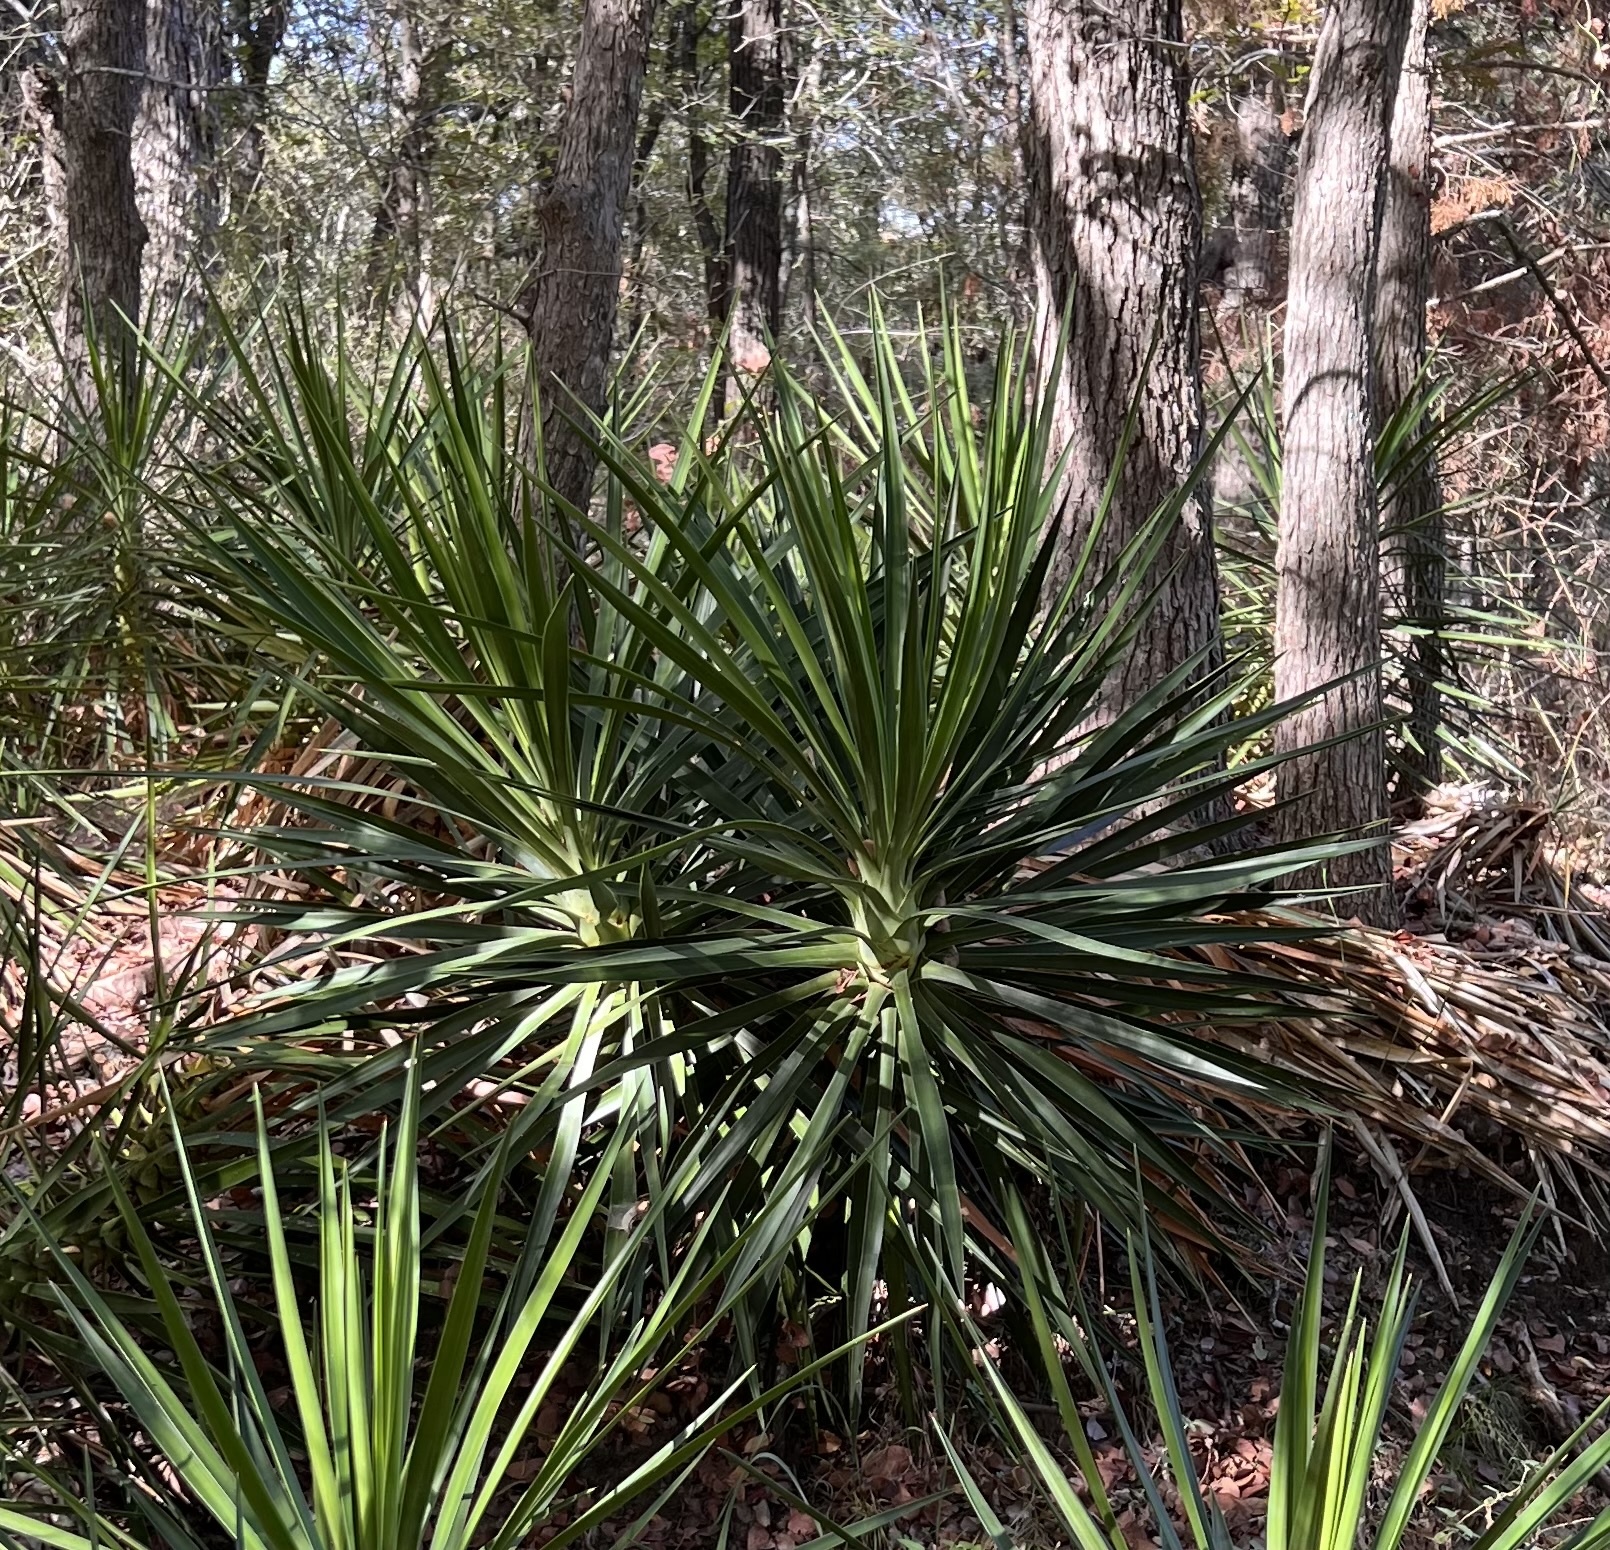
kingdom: Plantae
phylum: Tracheophyta
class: Liliopsida
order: Asparagales
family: Asparagaceae
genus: Yucca
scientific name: Yucca aloifolia
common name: Aloe yucca
